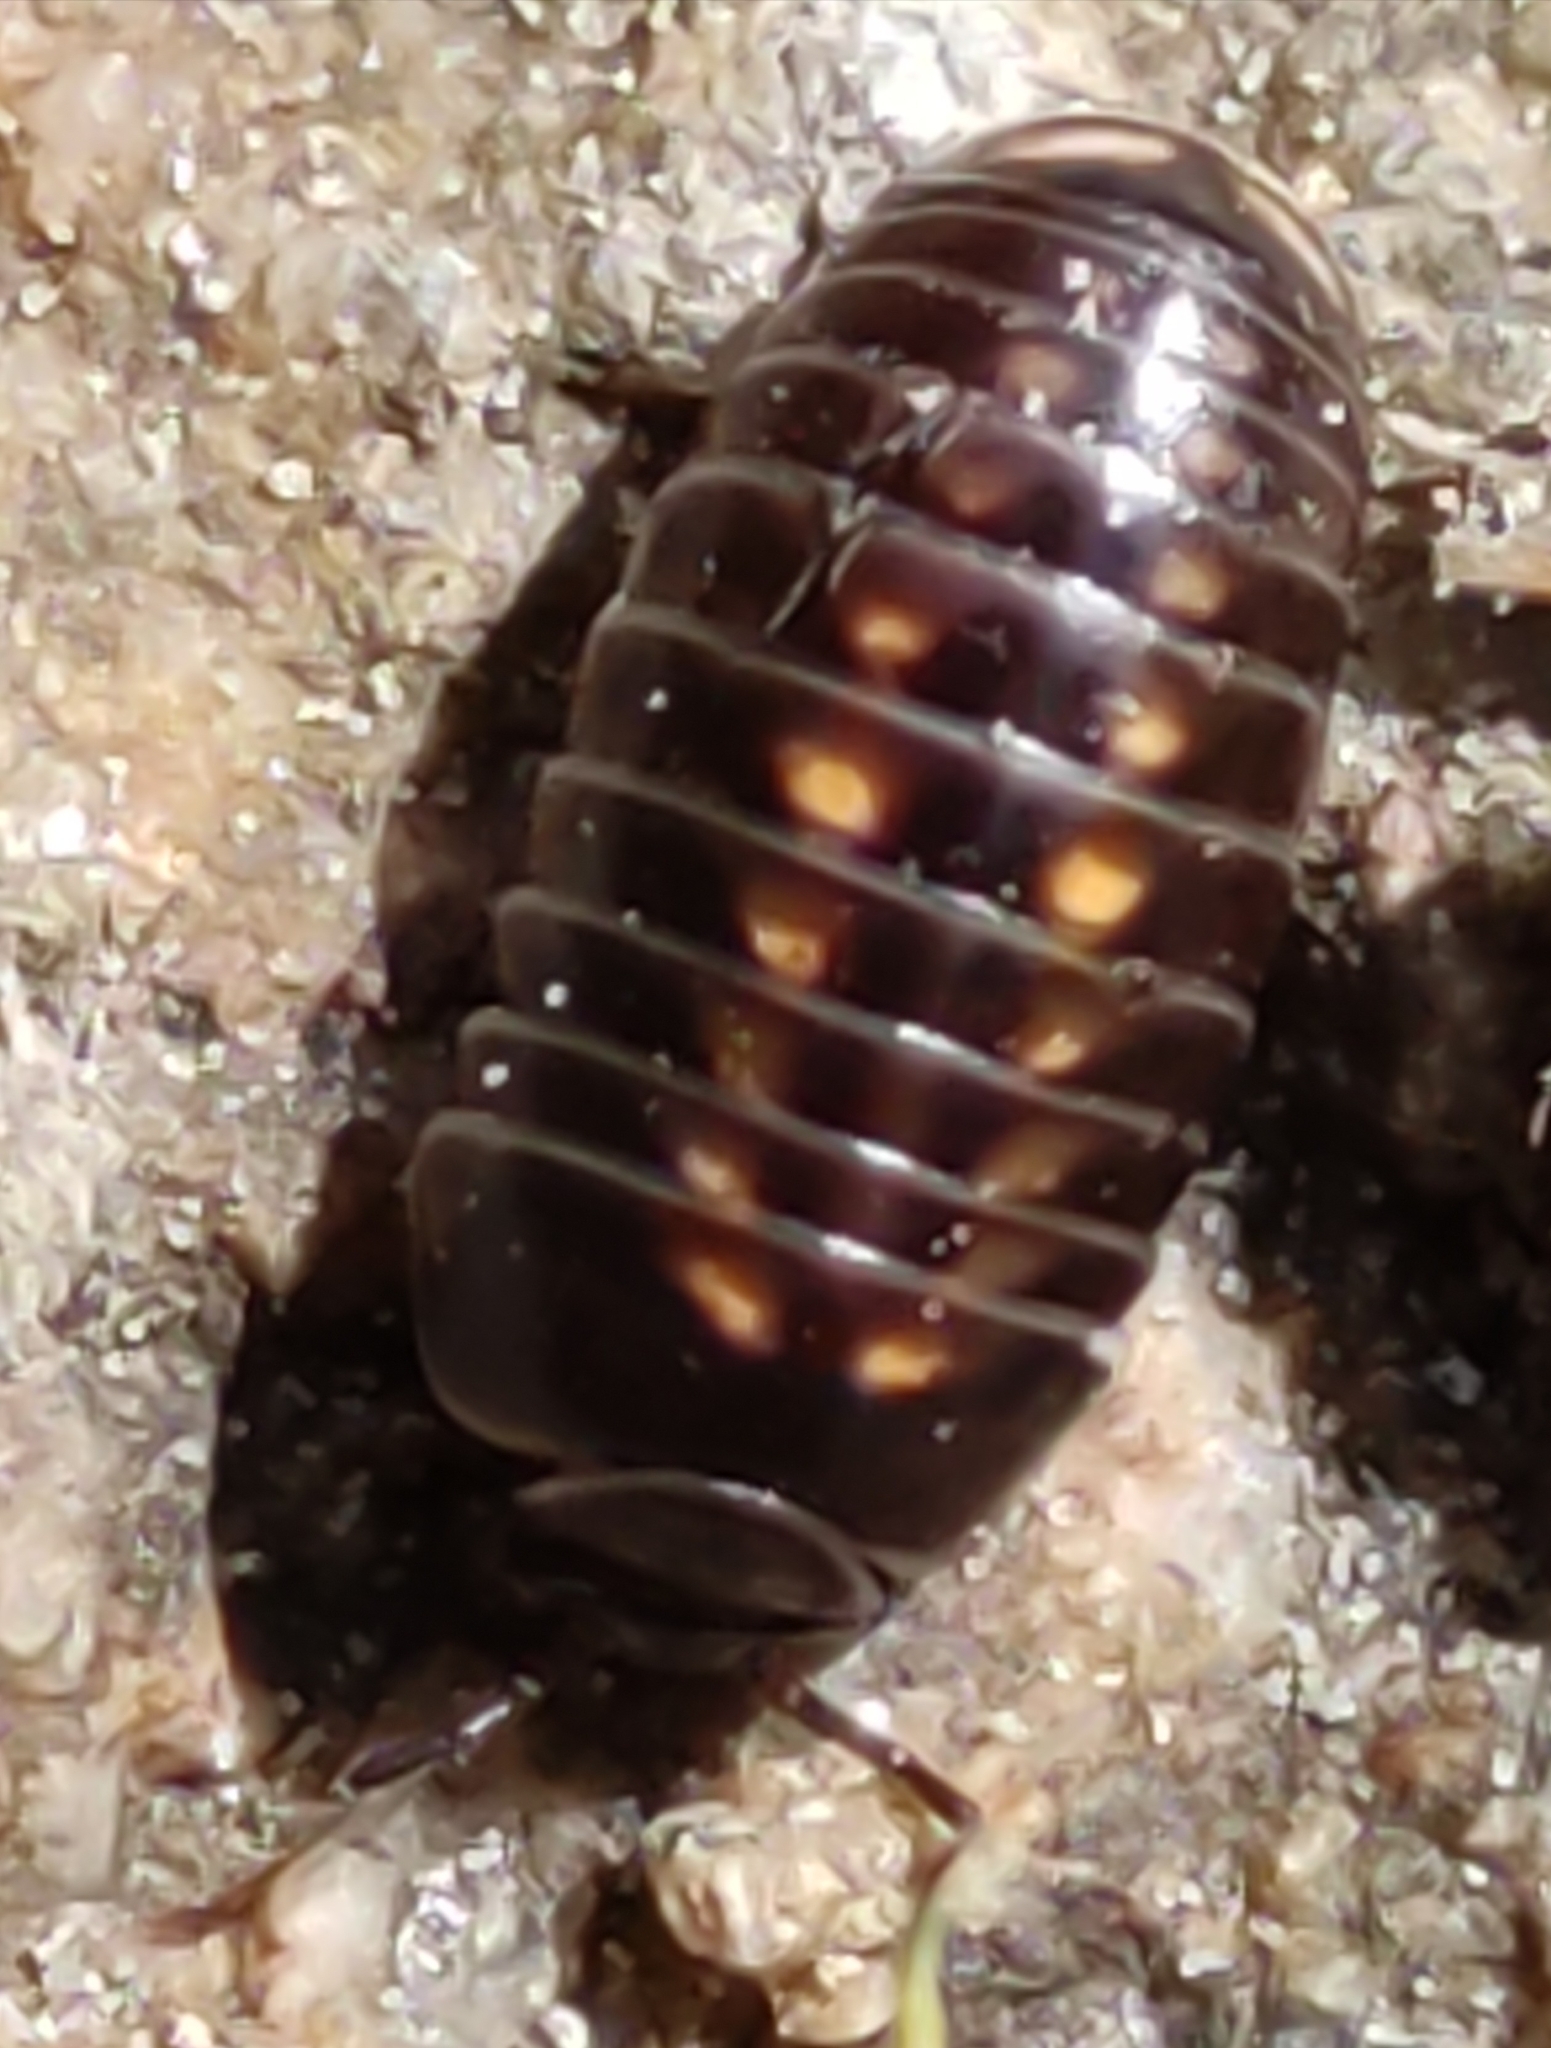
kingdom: Animalia
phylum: Arthropoda
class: Diplopoda
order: Glomerida
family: Glomeridae
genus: Glomeris
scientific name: Glomeris intermedia
